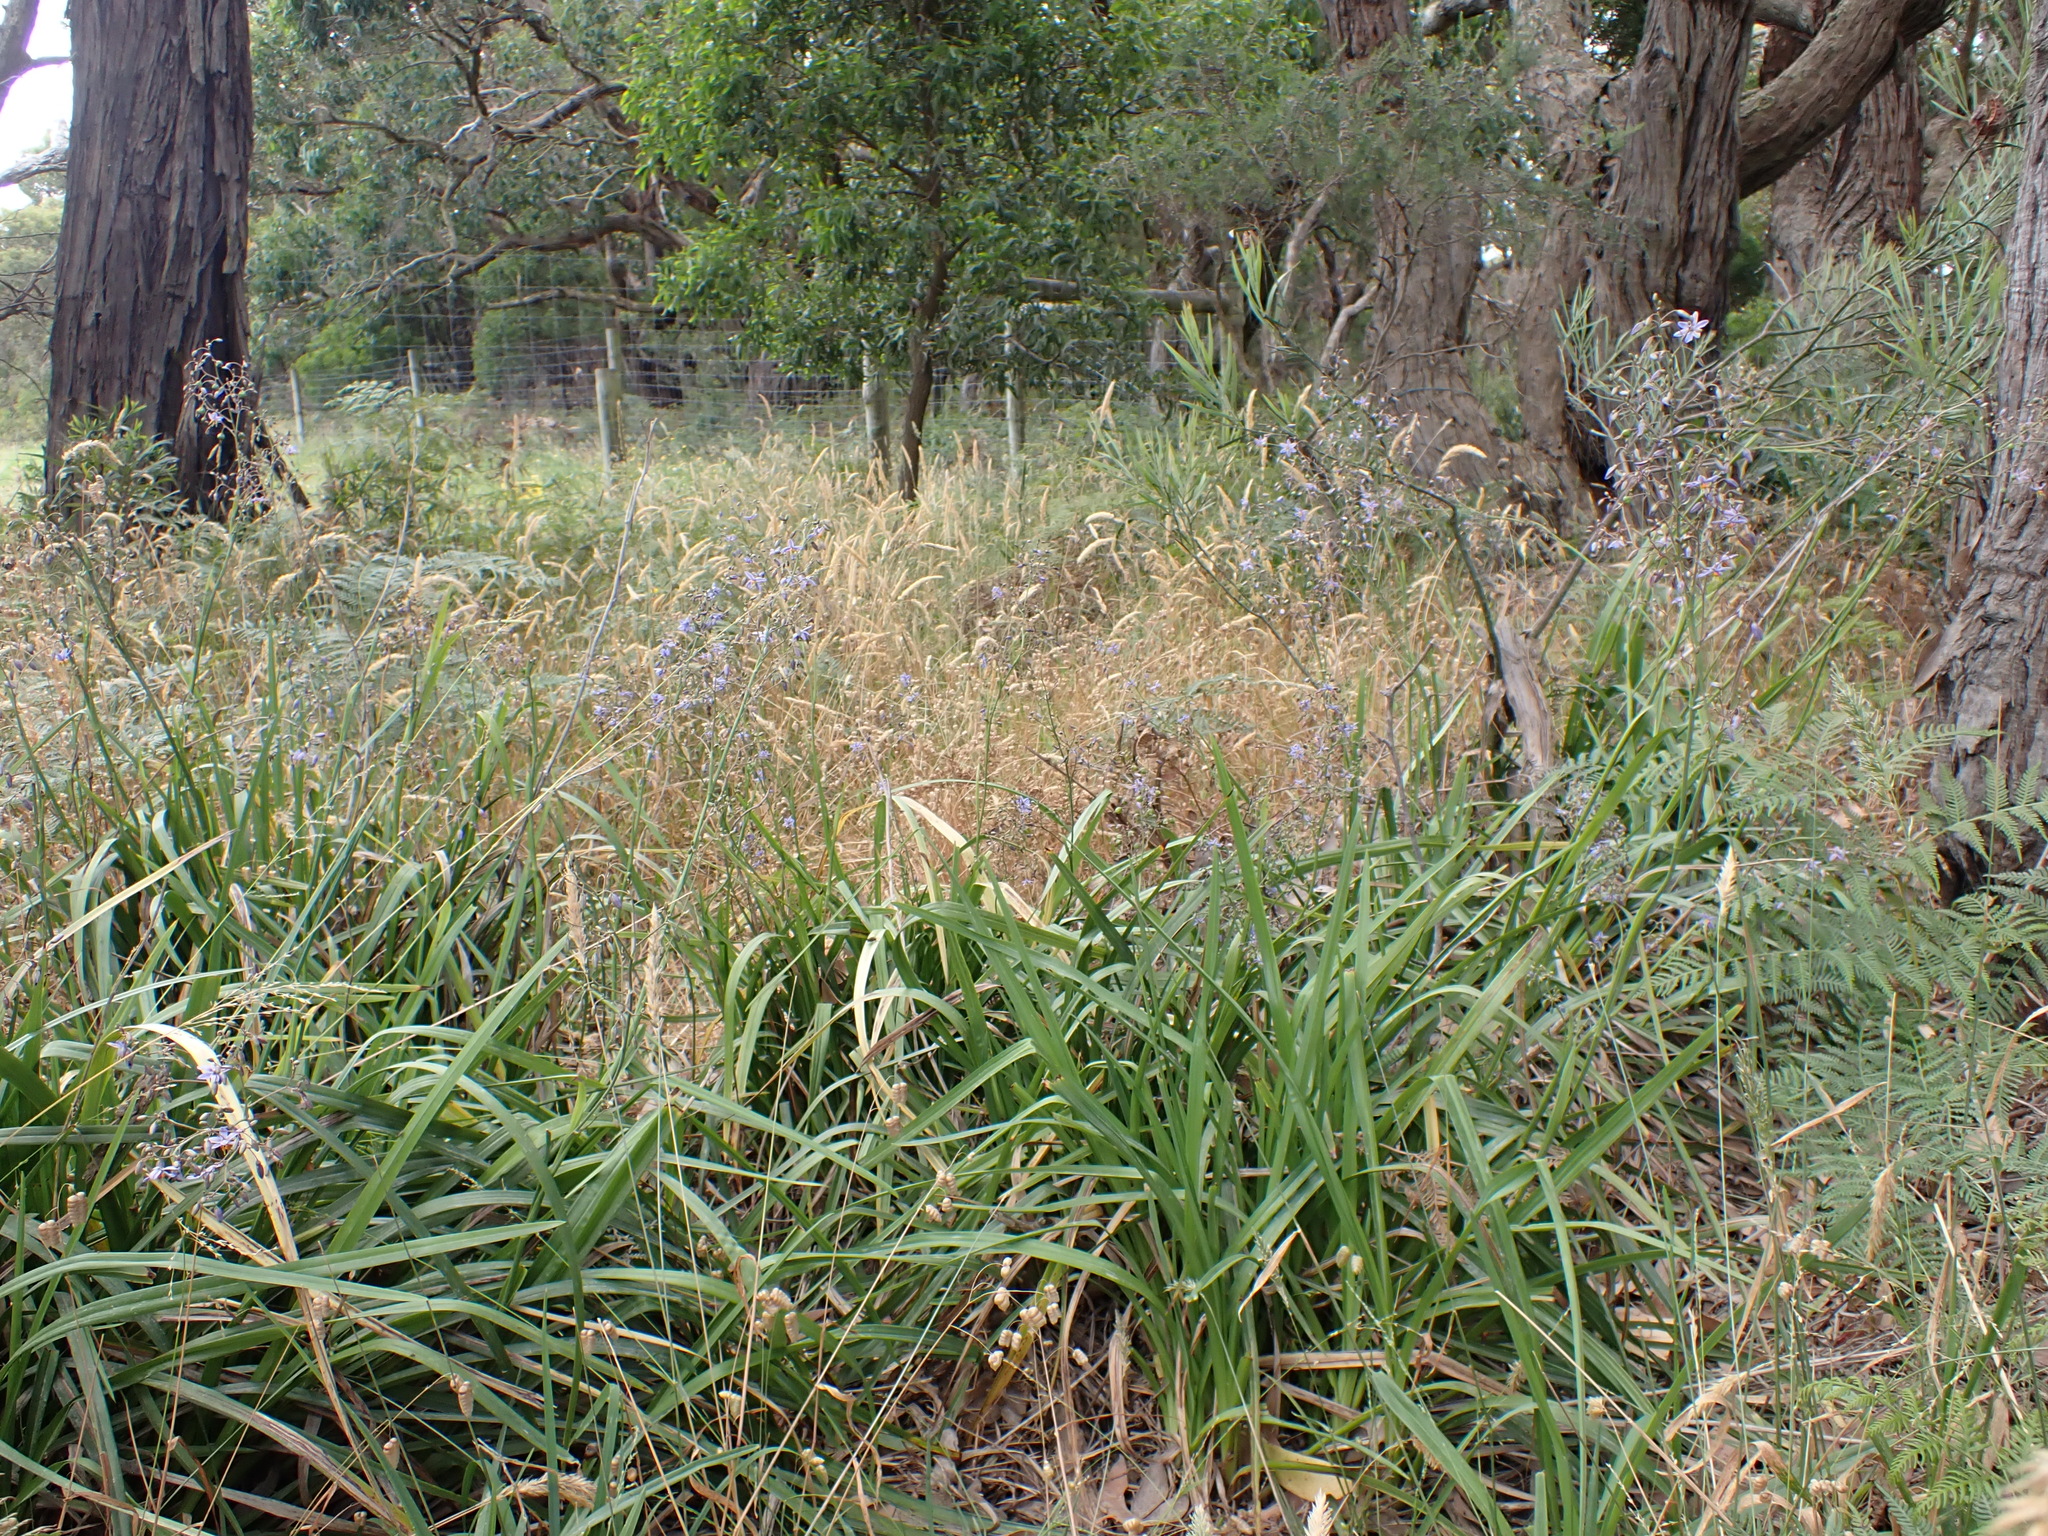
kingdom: Plantae
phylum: Tracheophyta
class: Liliopsida
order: Asparagales
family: Asphodelaceae
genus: Dianella
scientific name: Dianella longifolia
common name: Blue flax-lily
